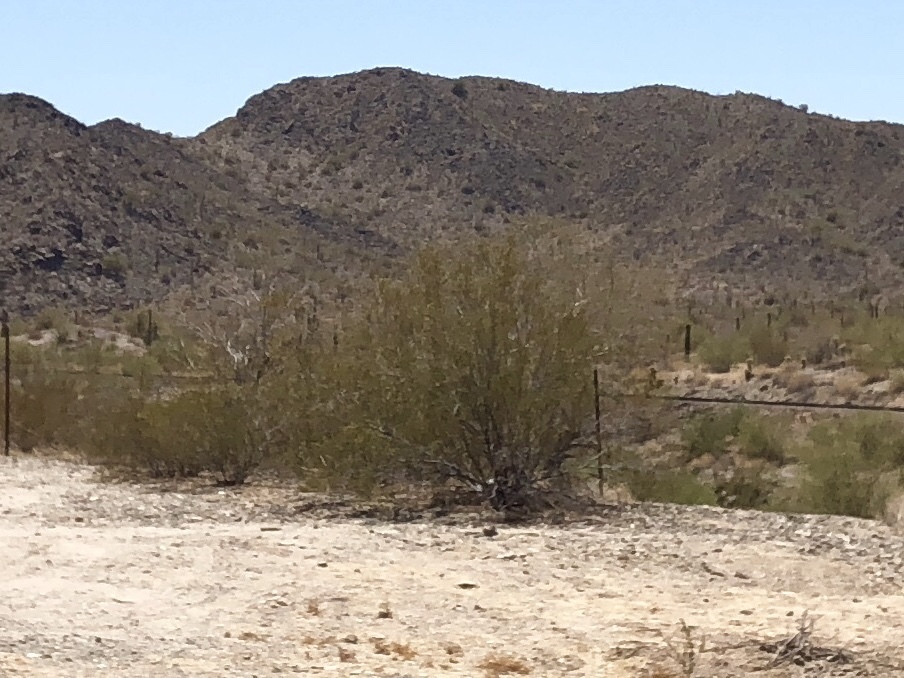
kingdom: Plantae
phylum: Tracheophyta
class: Magnoliopsida
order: Zygophyllales
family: Zygophyllaceae
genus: Larrea
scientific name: Larrea tridentata
